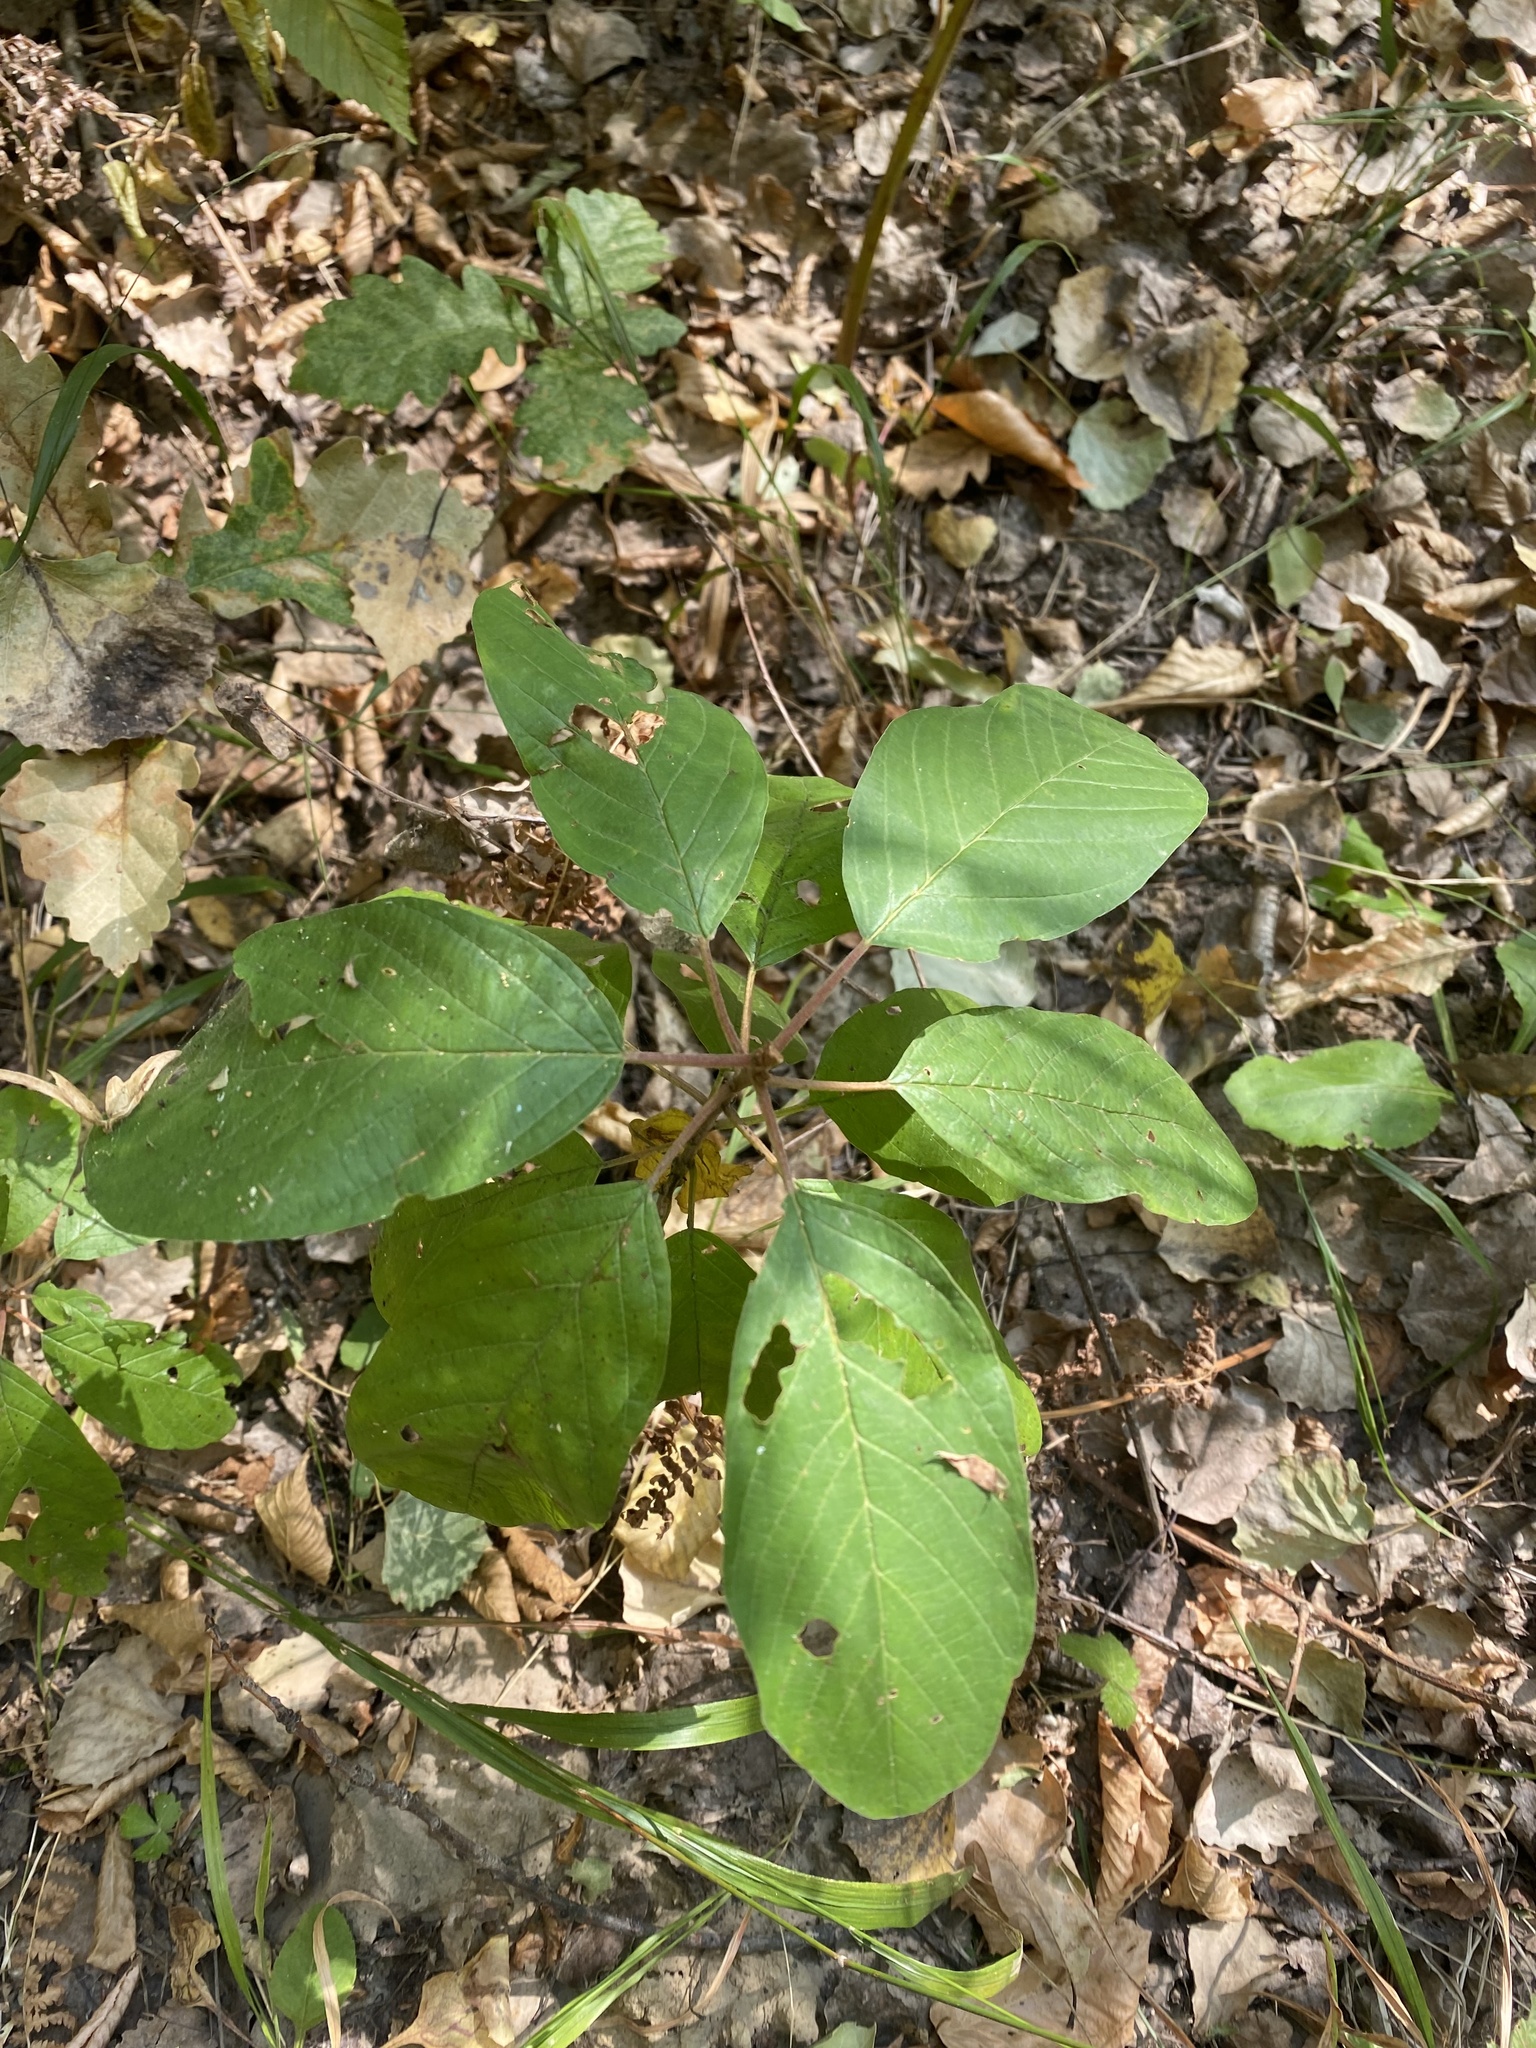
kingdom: Plantae
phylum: Tracheophyta
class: Magnoliopsida
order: Rosales
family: Rhamnaceae
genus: Frangula
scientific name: Frangula alnus
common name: Alder buckthorn
